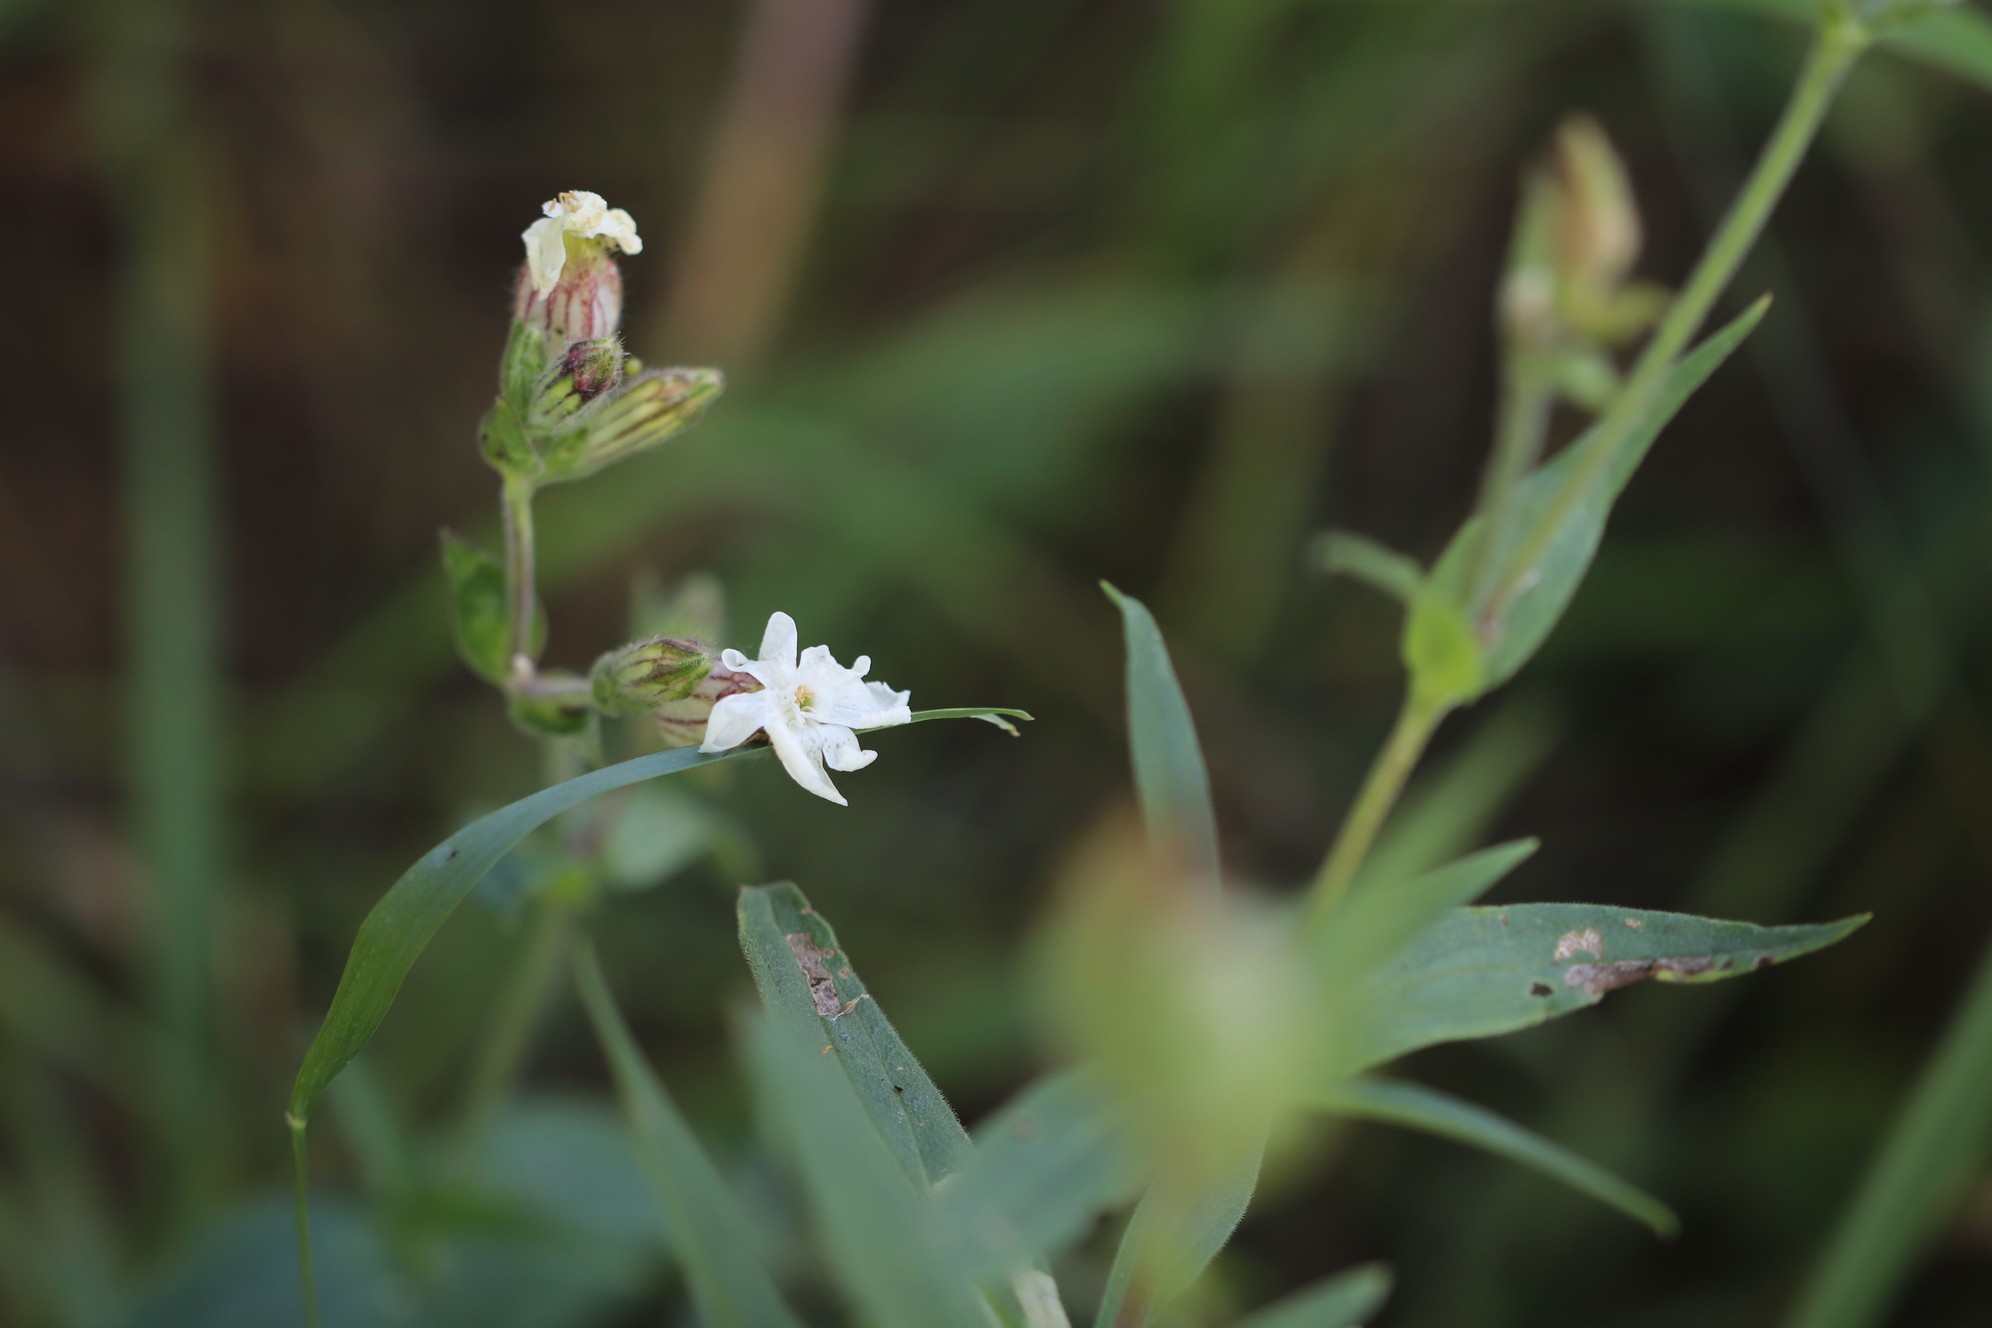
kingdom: Plantae
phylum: Tracheophyta
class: Magnoliopsida
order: Caryophyllales
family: Caryophyllaceae
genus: Silene
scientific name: Silene latifolia
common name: White campion
